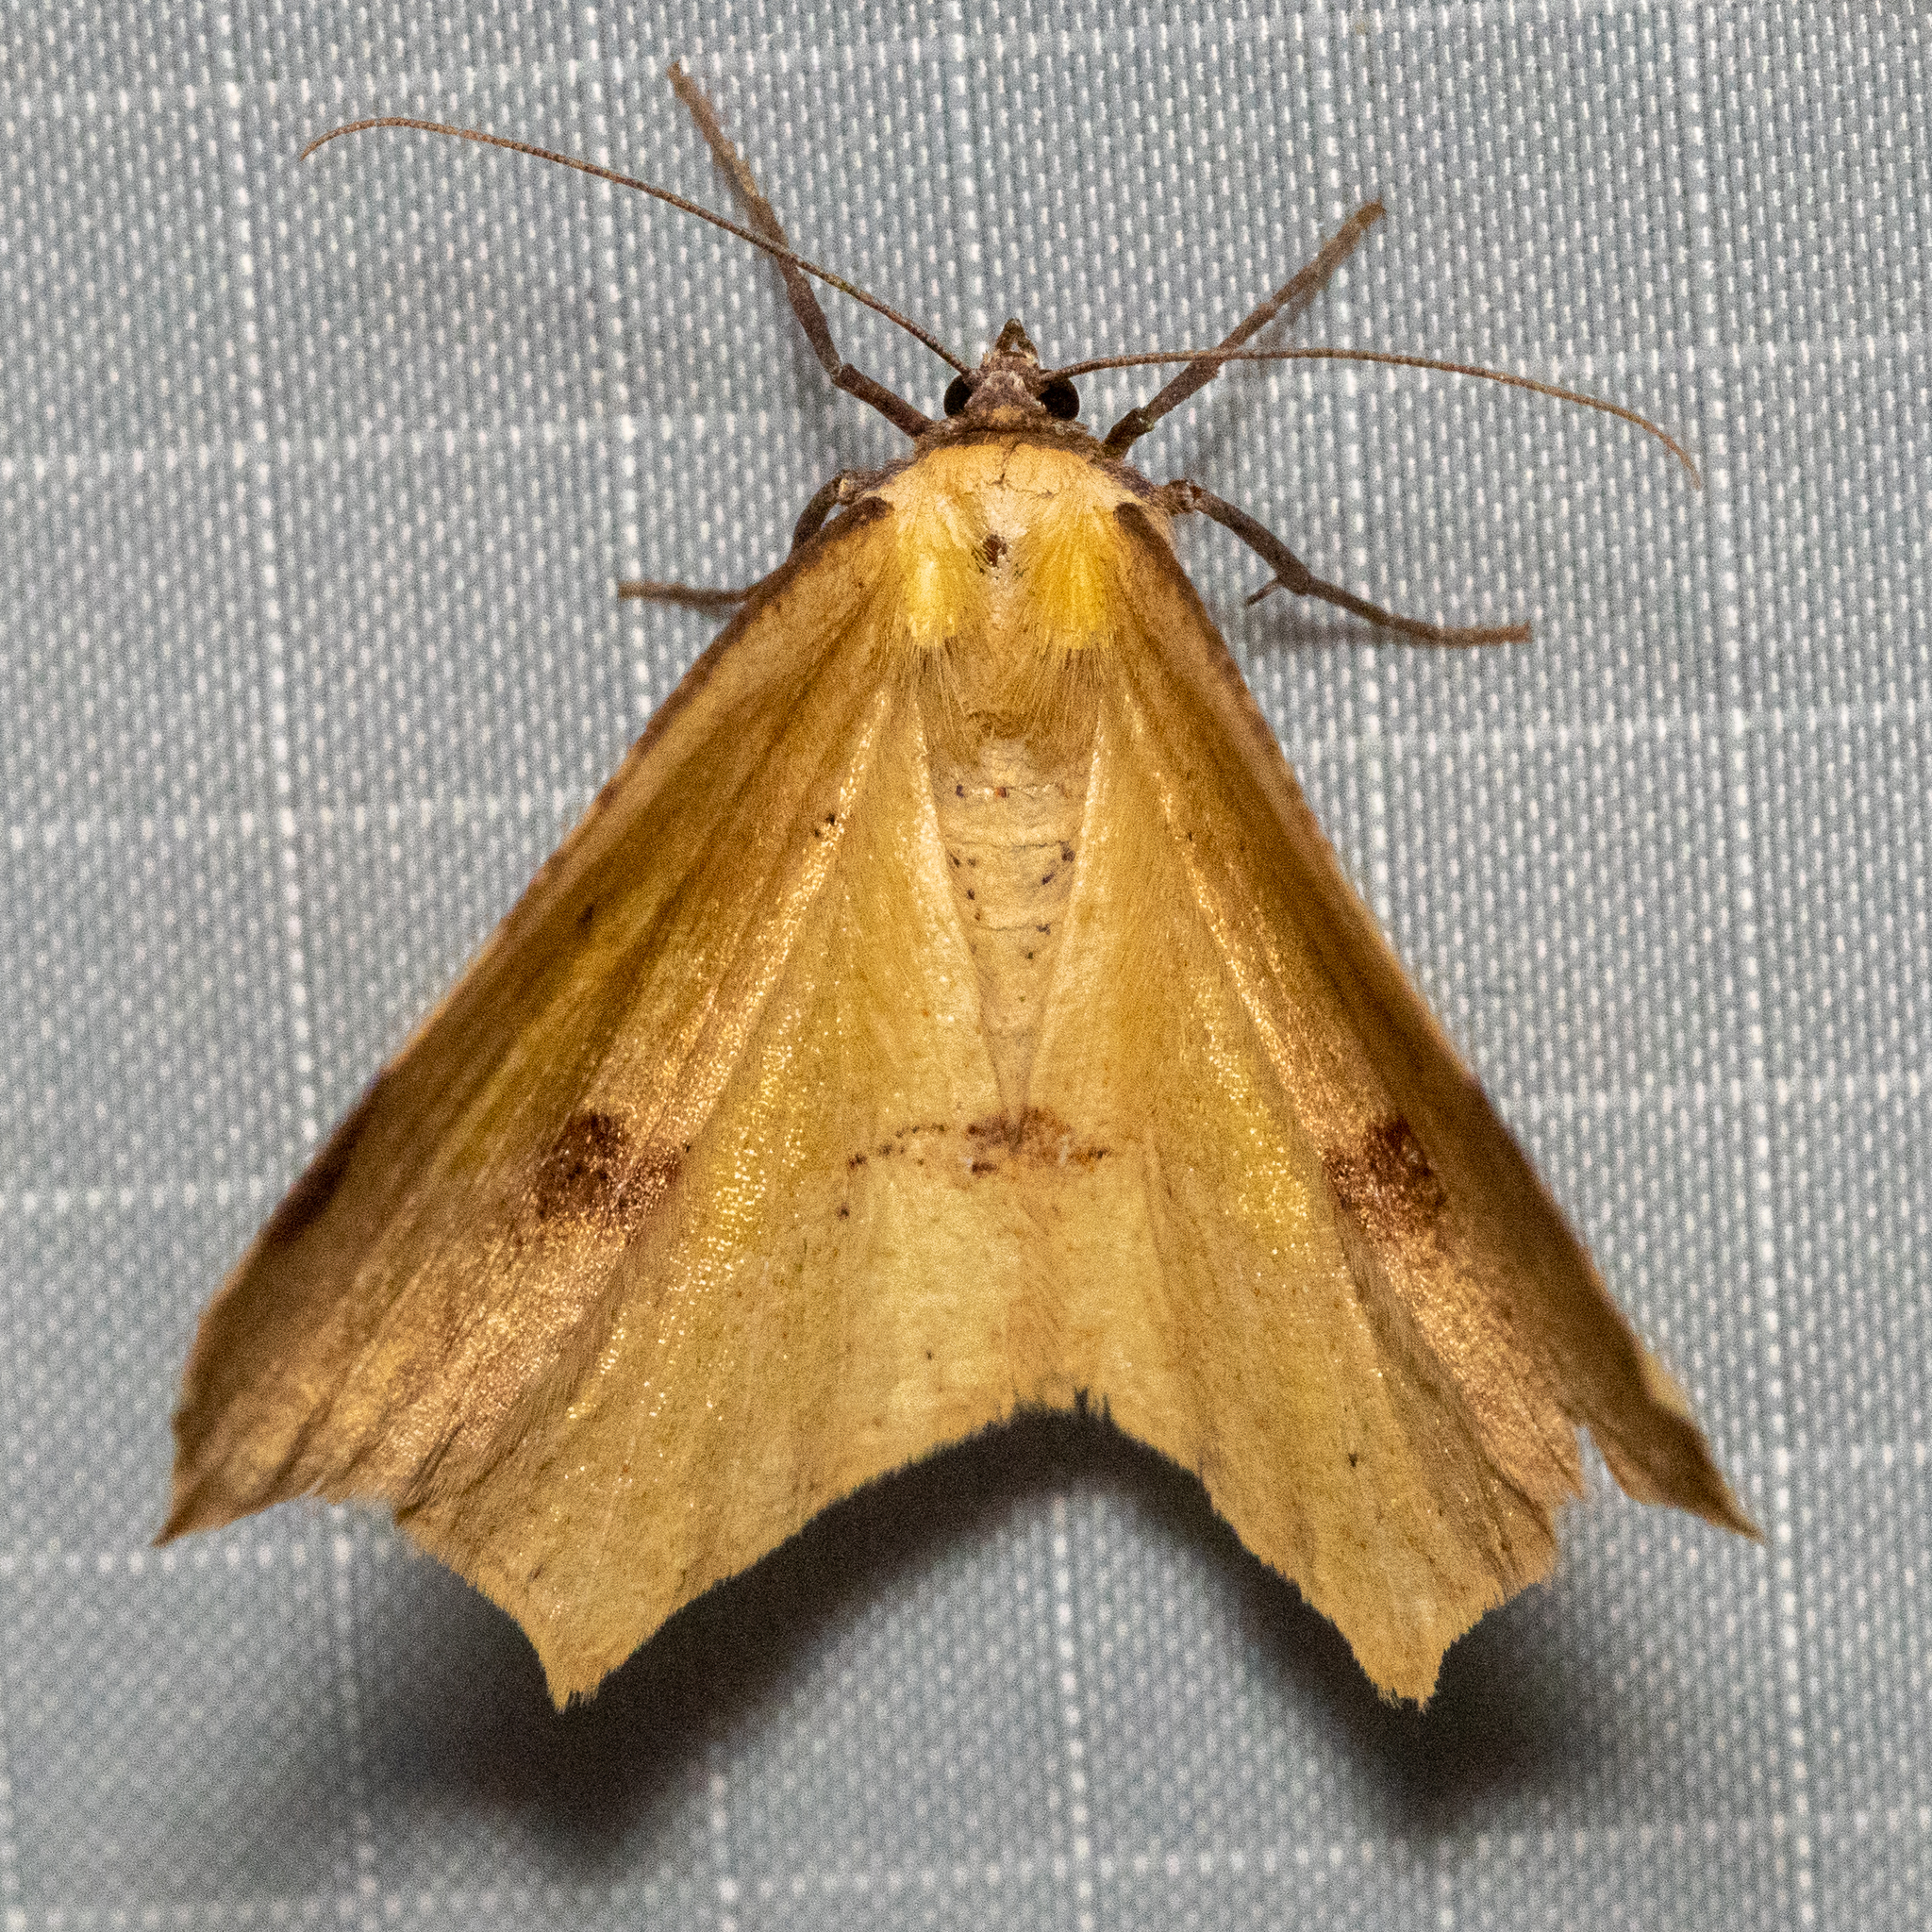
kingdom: Animalia
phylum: Arthropoda
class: Insecta
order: Lepidoptera
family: Geometridae
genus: Antepione
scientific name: Antepione thisoaria
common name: Variable antipione
